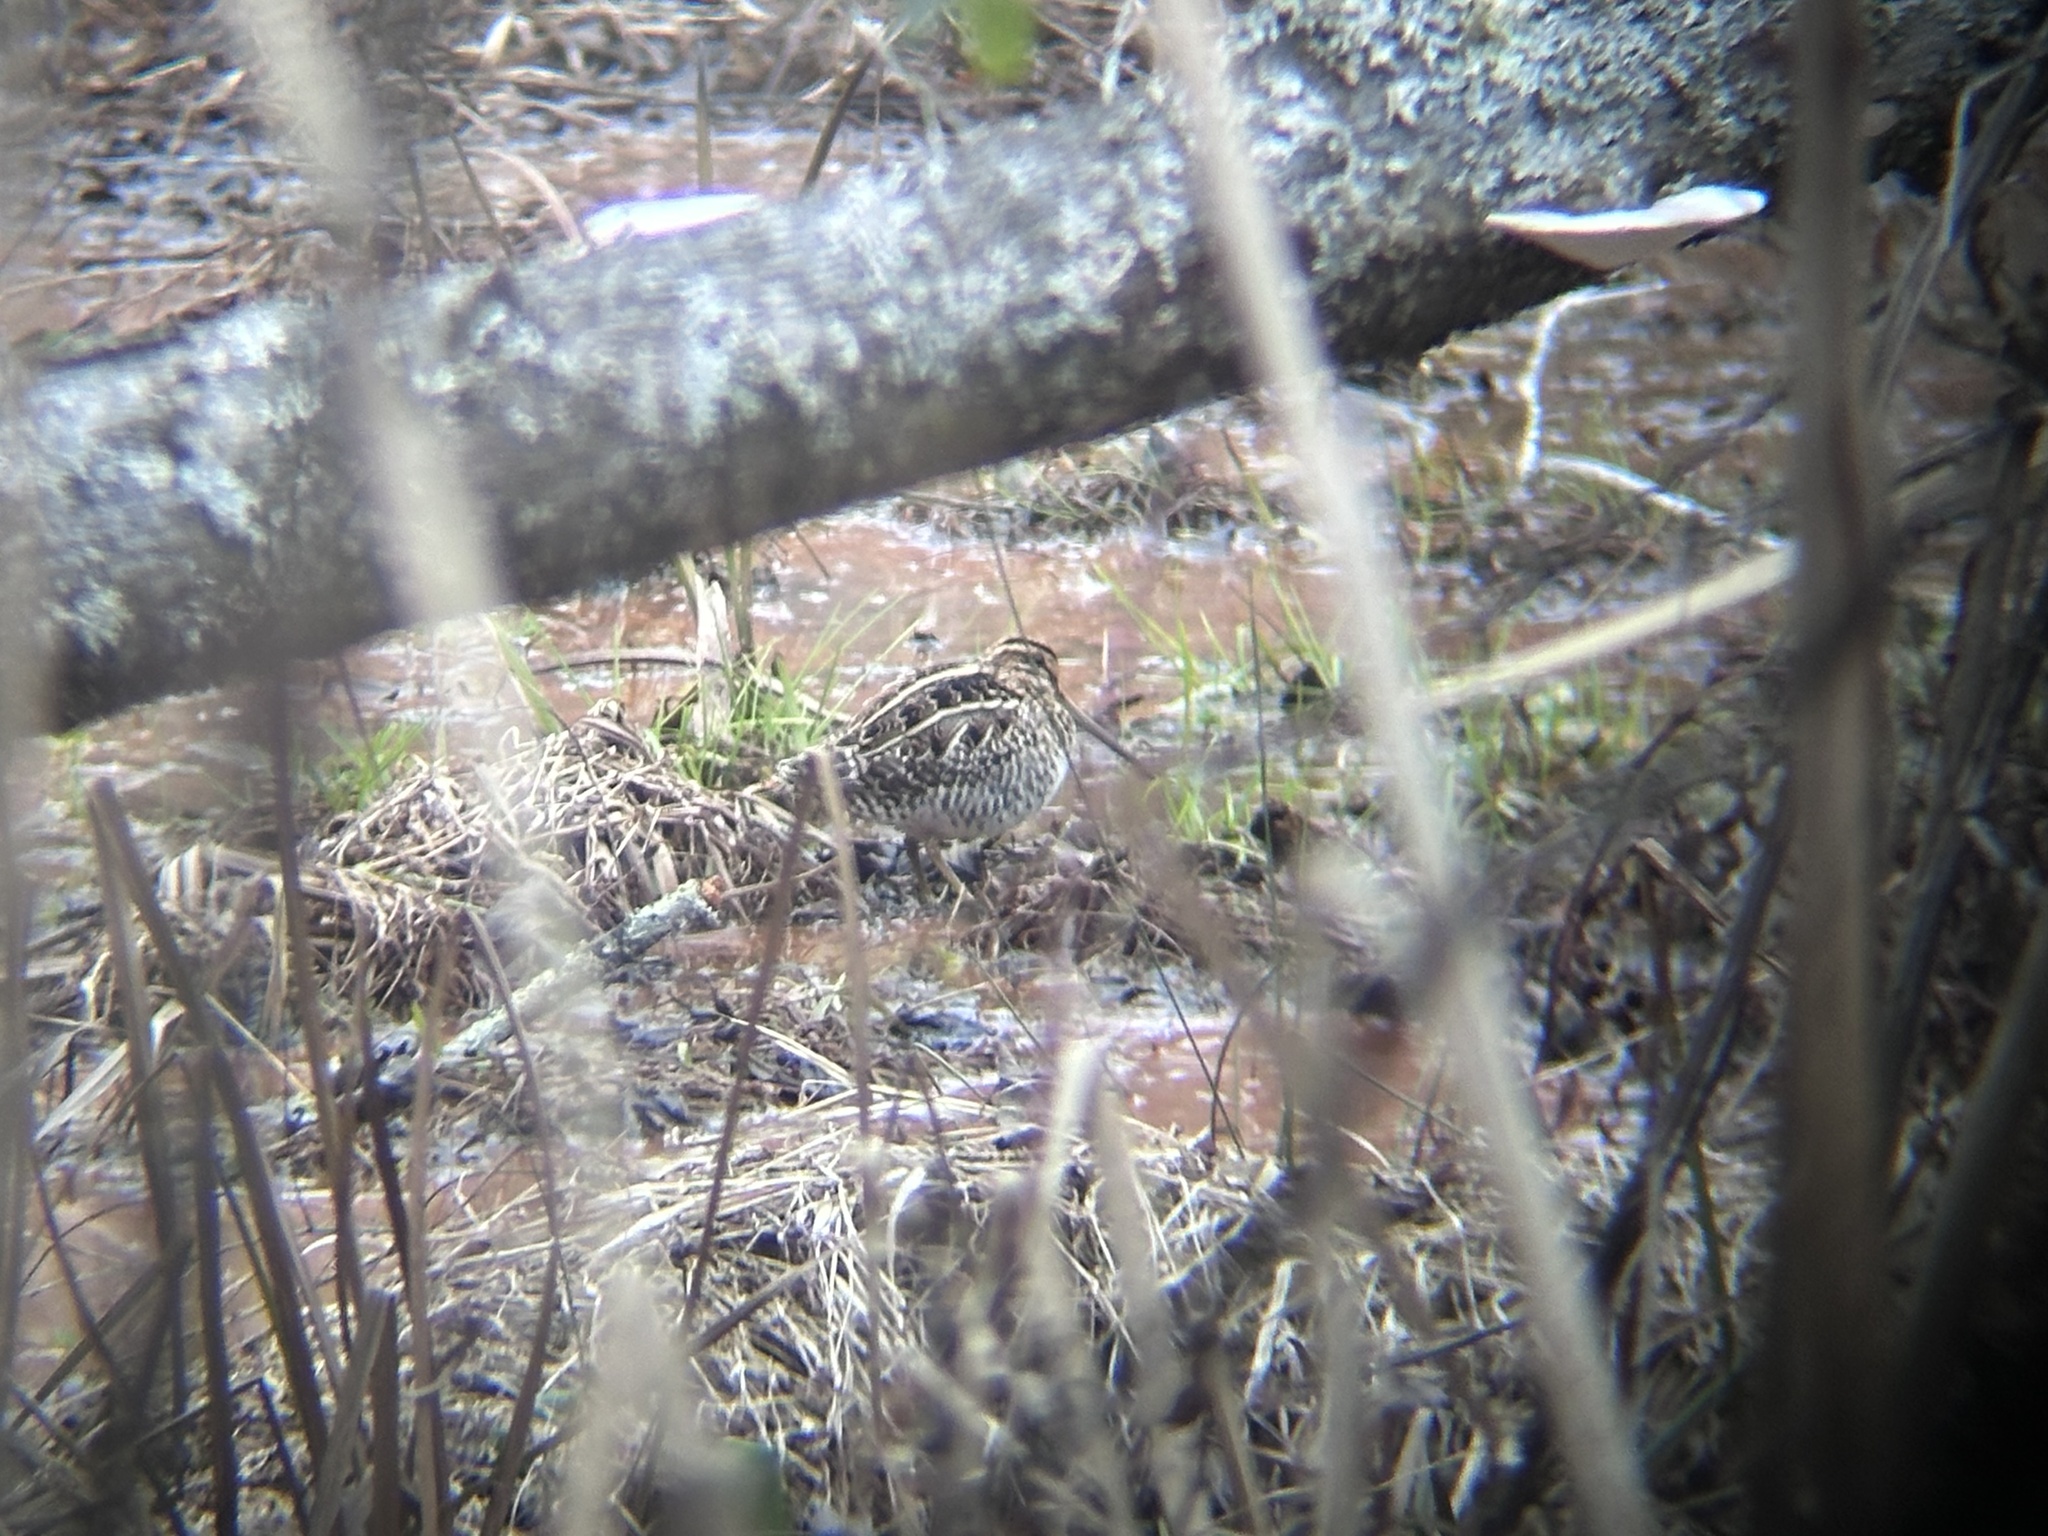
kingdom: Animalia
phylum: Chordata
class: Aves
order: Charadriiformes
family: Scolopacidae
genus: Gallinago
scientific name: Gallinago delicata
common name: Wilson's snipe
